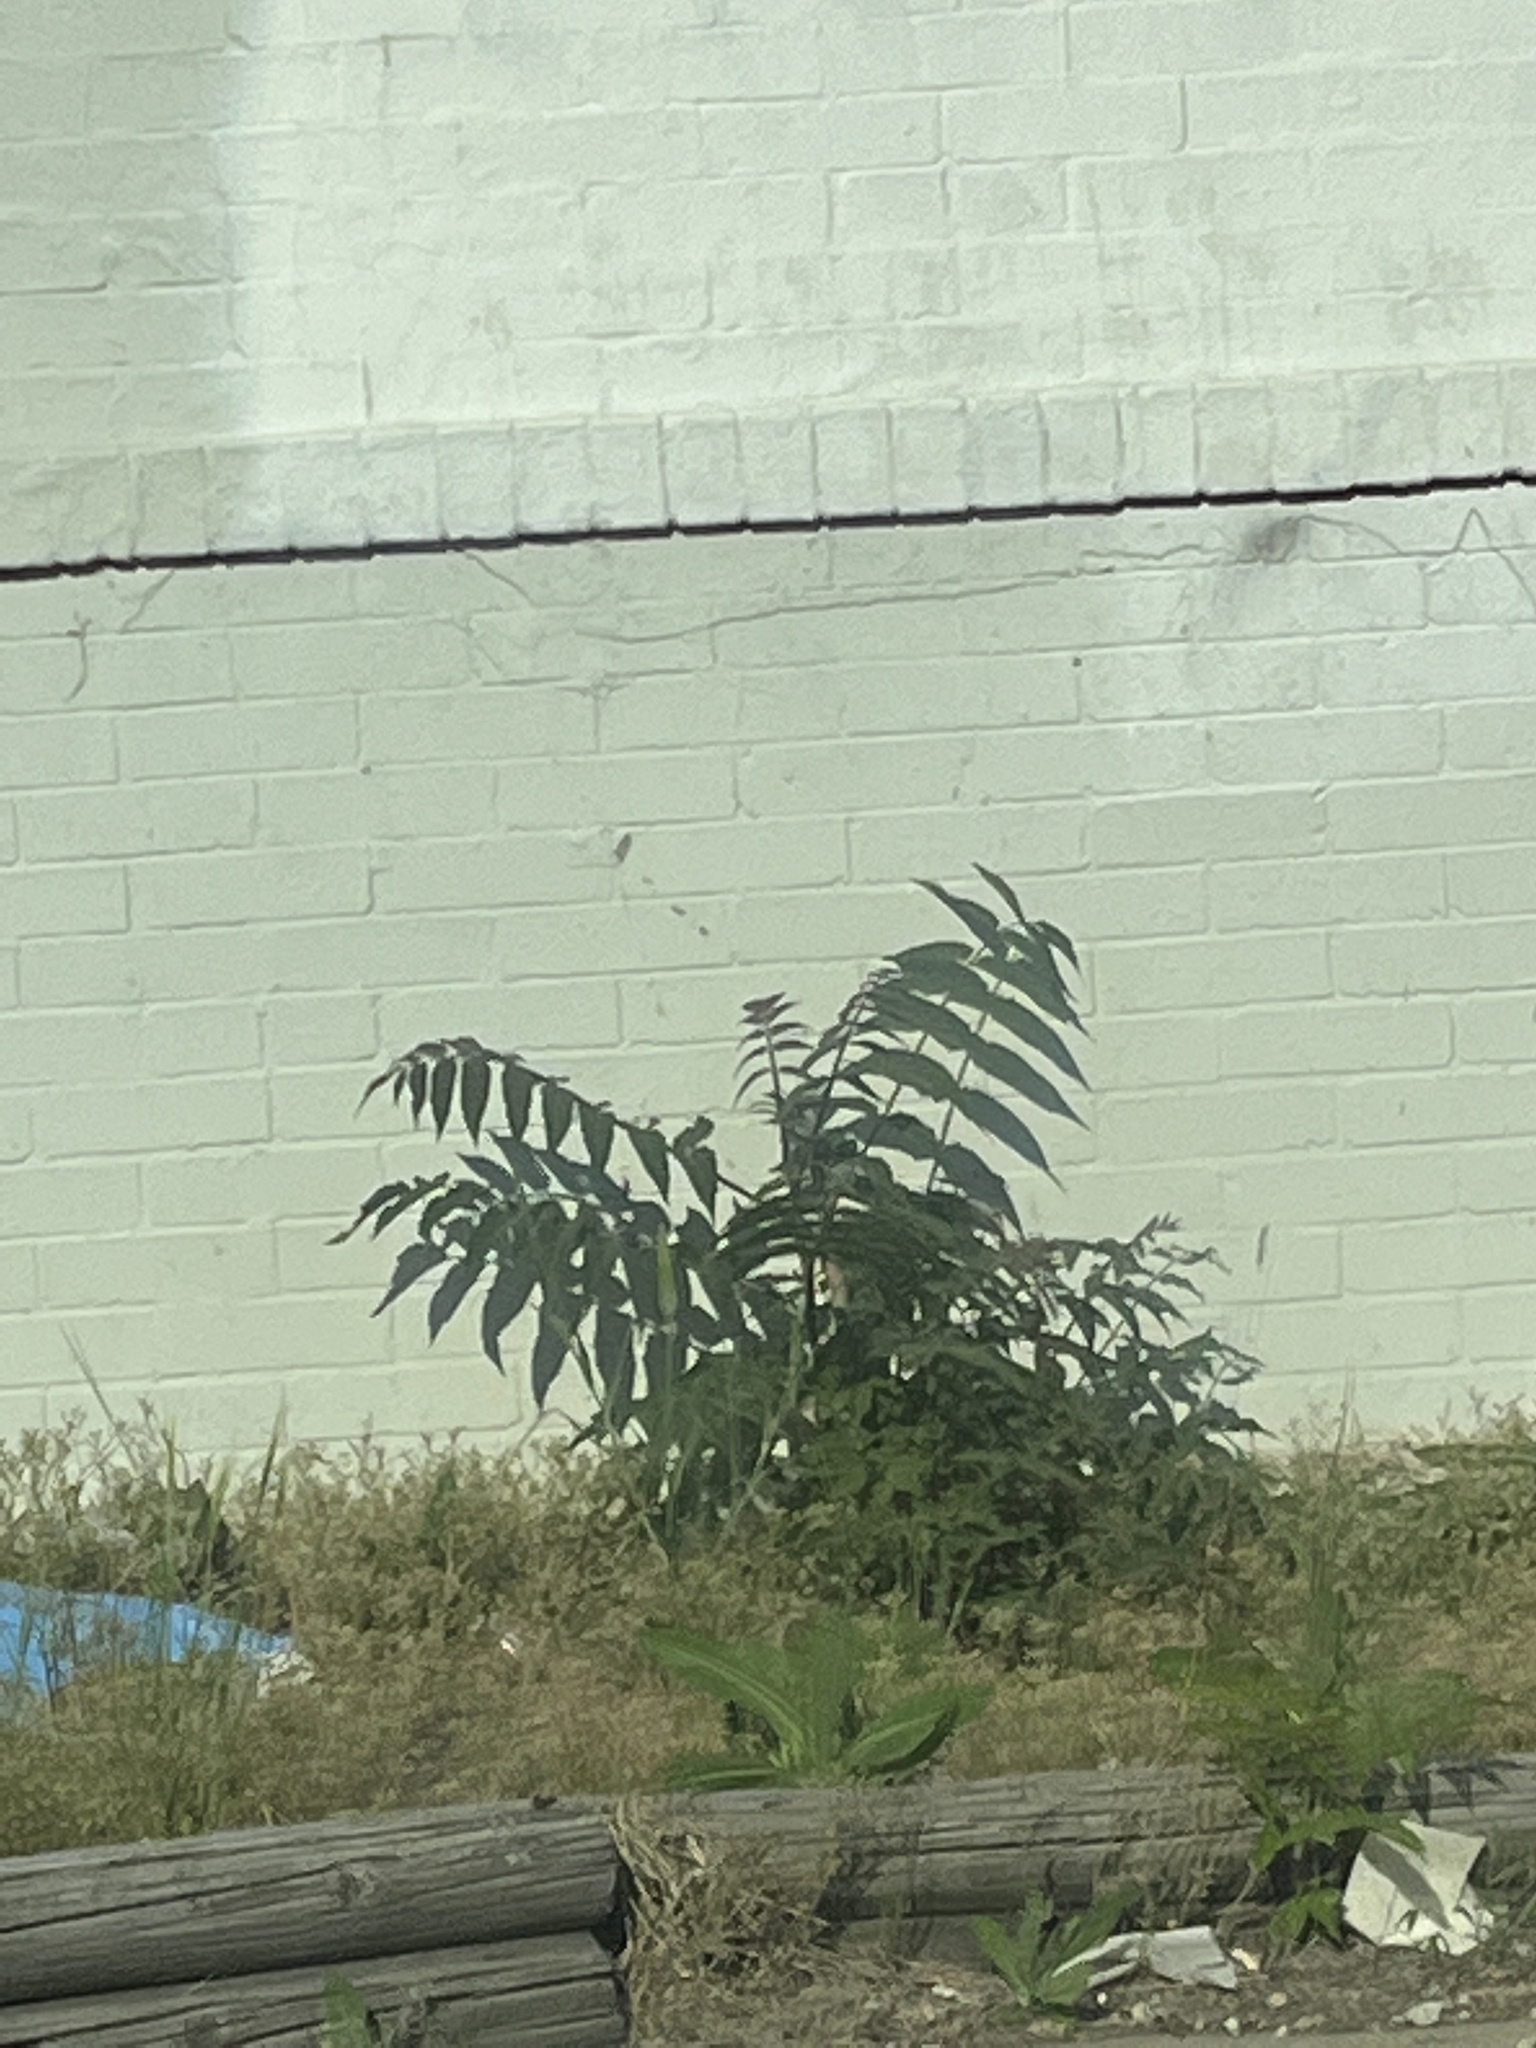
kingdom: Plantae
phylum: Tracheophyta
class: Magnoliopsida
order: Sapindales
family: Simaroubaceae
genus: Ailanthus
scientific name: Ailanthus altissima
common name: Tree-of-heaven
